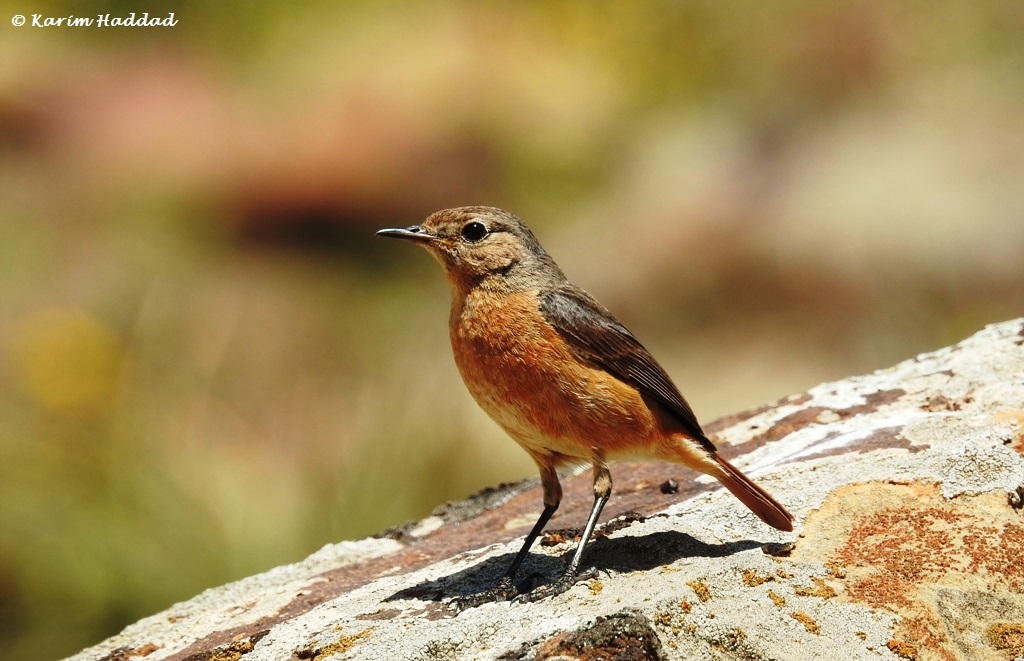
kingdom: Animalia
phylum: Chordata
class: Aves
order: Passeriformes
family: Muscicapidae
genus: Phoenicurus
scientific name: Phoenicurus moussieri
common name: Moussier's redstart
